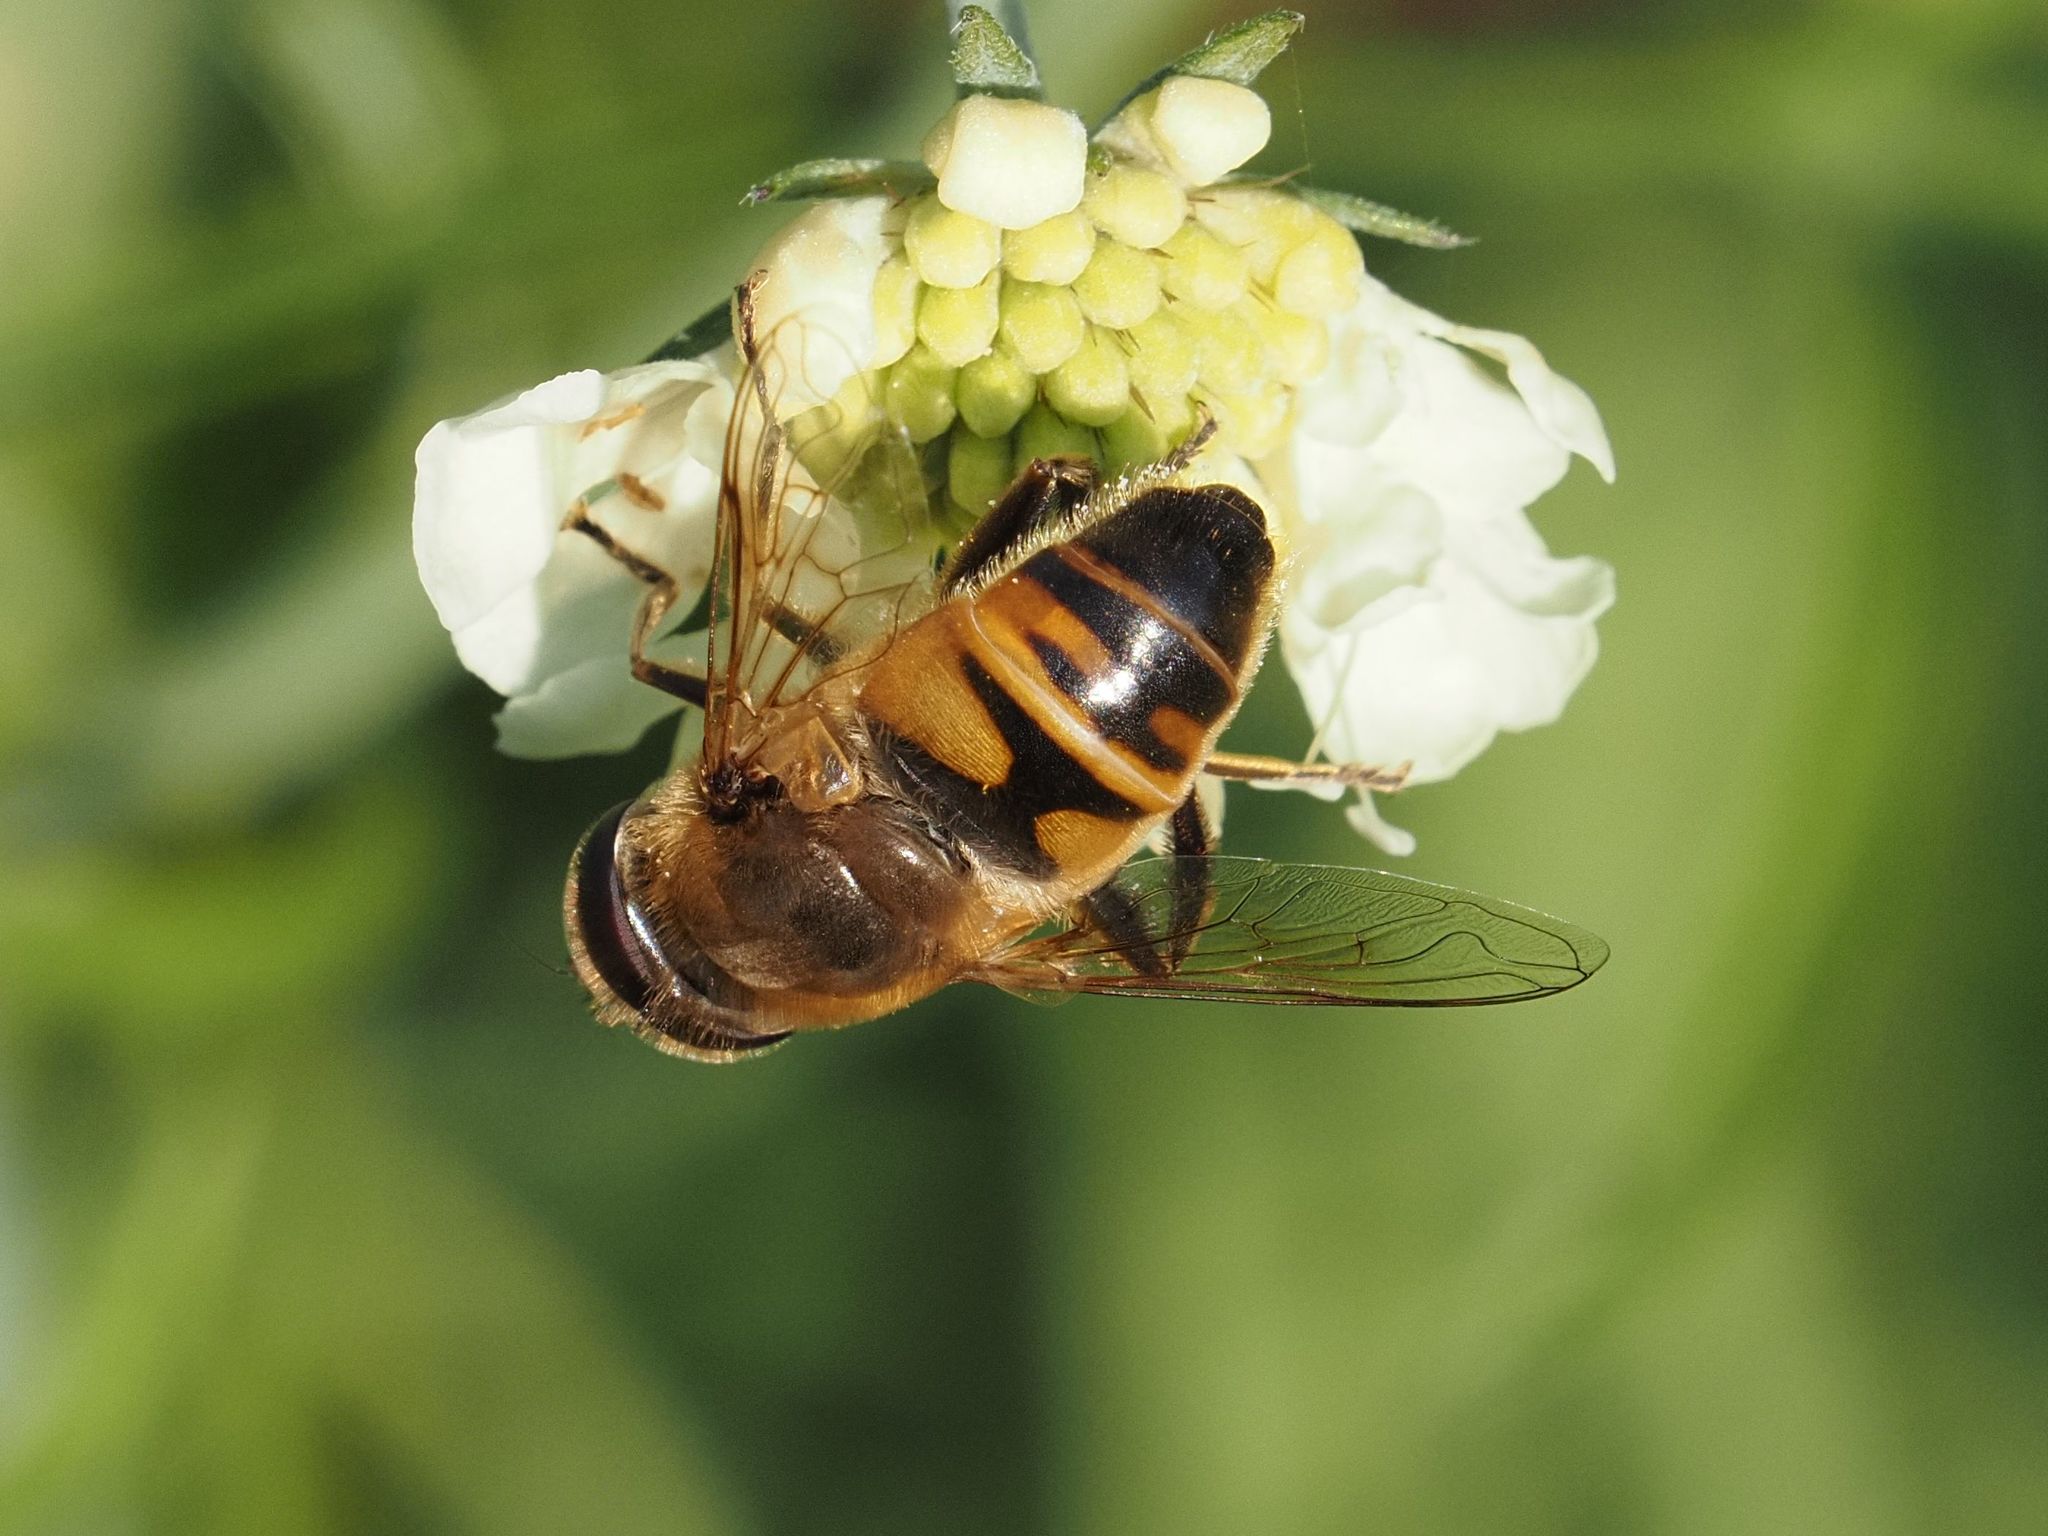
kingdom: Animalia
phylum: Arthropoda
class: Insecta
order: Diptera
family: Syrphidae
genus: Eristalis
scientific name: Eristalis tenax
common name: Drone fly
